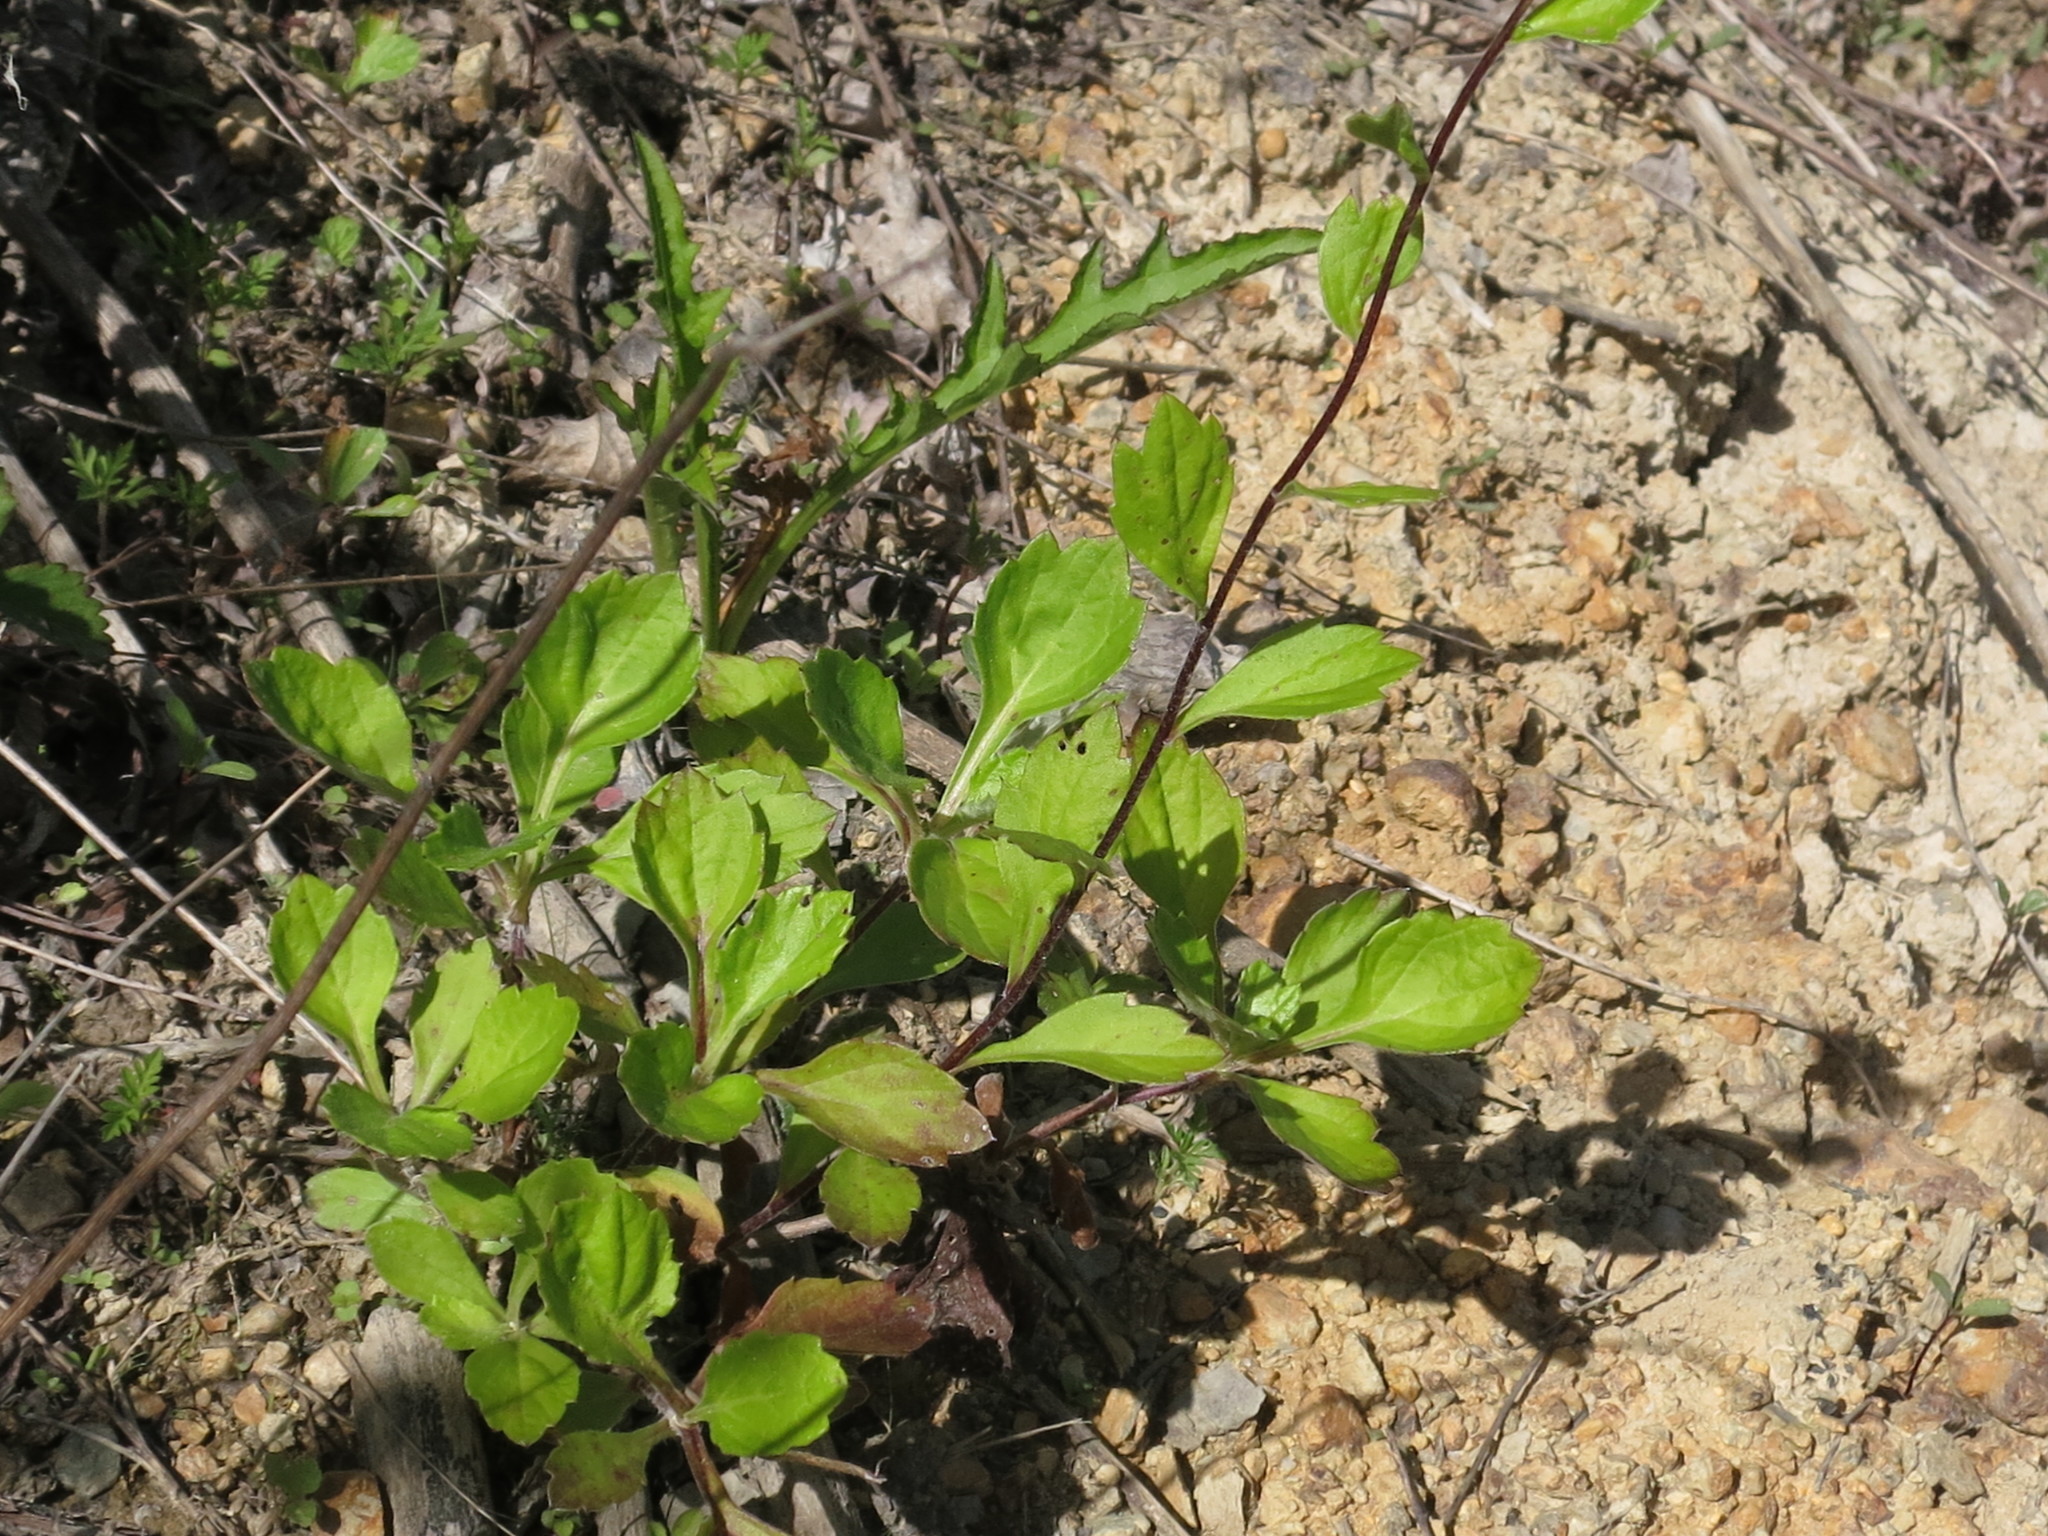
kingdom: Plantae
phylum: Tracheophyta
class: Magnoliopsida
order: Asterales
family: Asteraceae
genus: Artemisia
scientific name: Artemisia keiskeana
